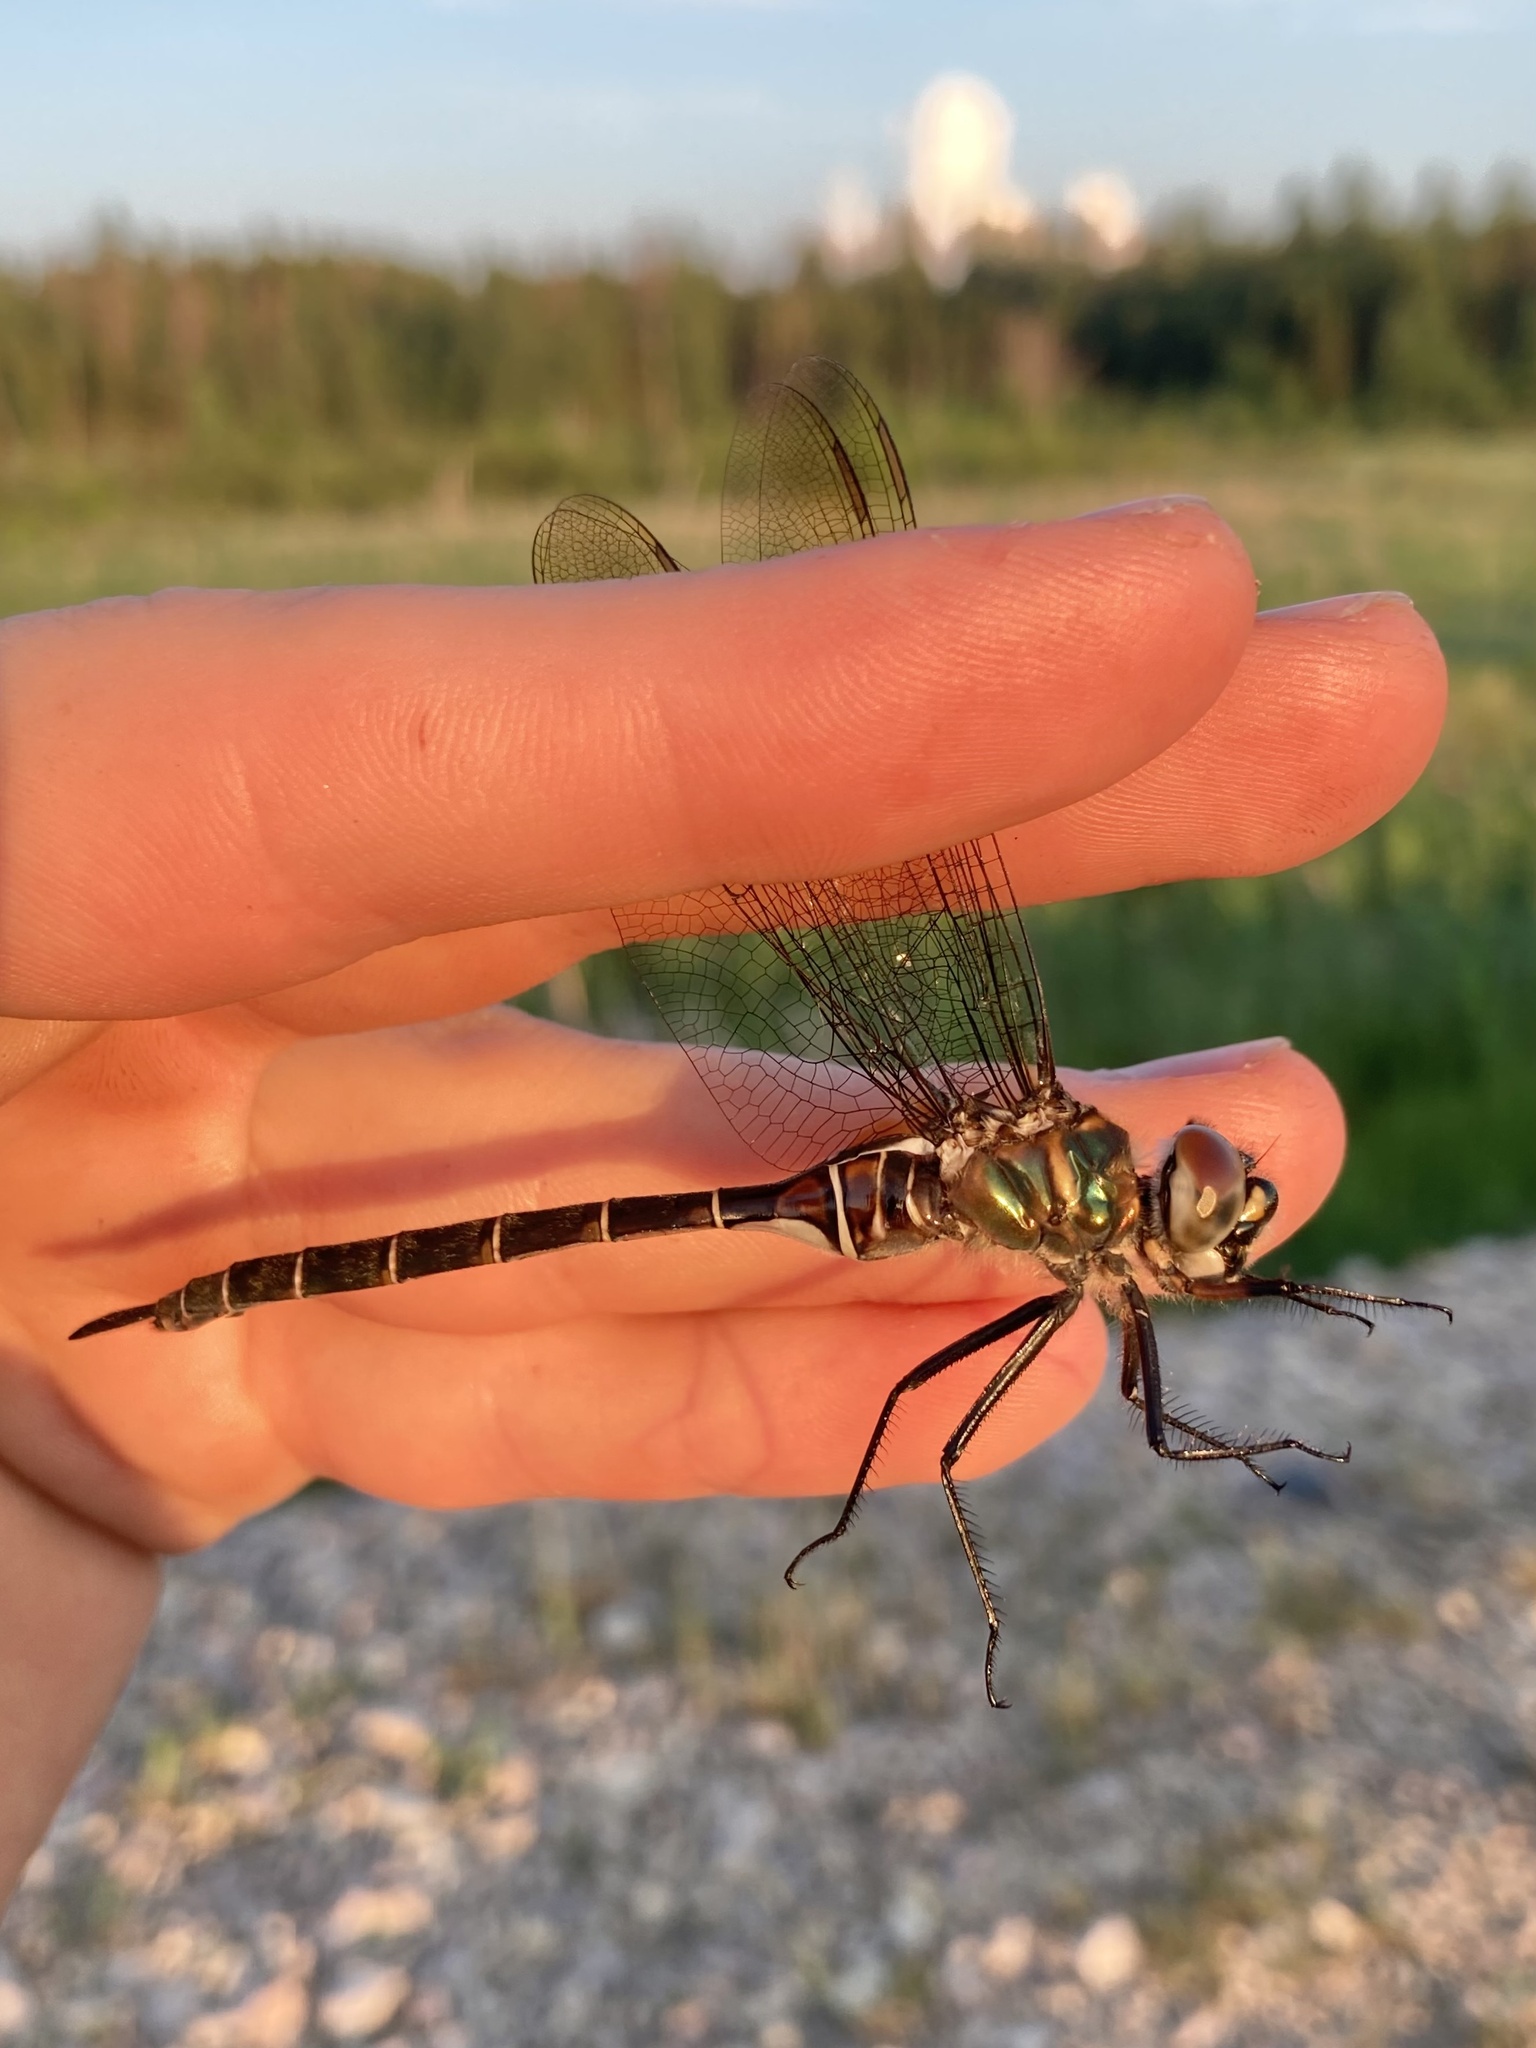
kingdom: Animalia
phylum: Arthropoda
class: Insecta
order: Odonata
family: Corduliidae
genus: Somatochlora
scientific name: Somatochlora cingulata
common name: Lake emerald
